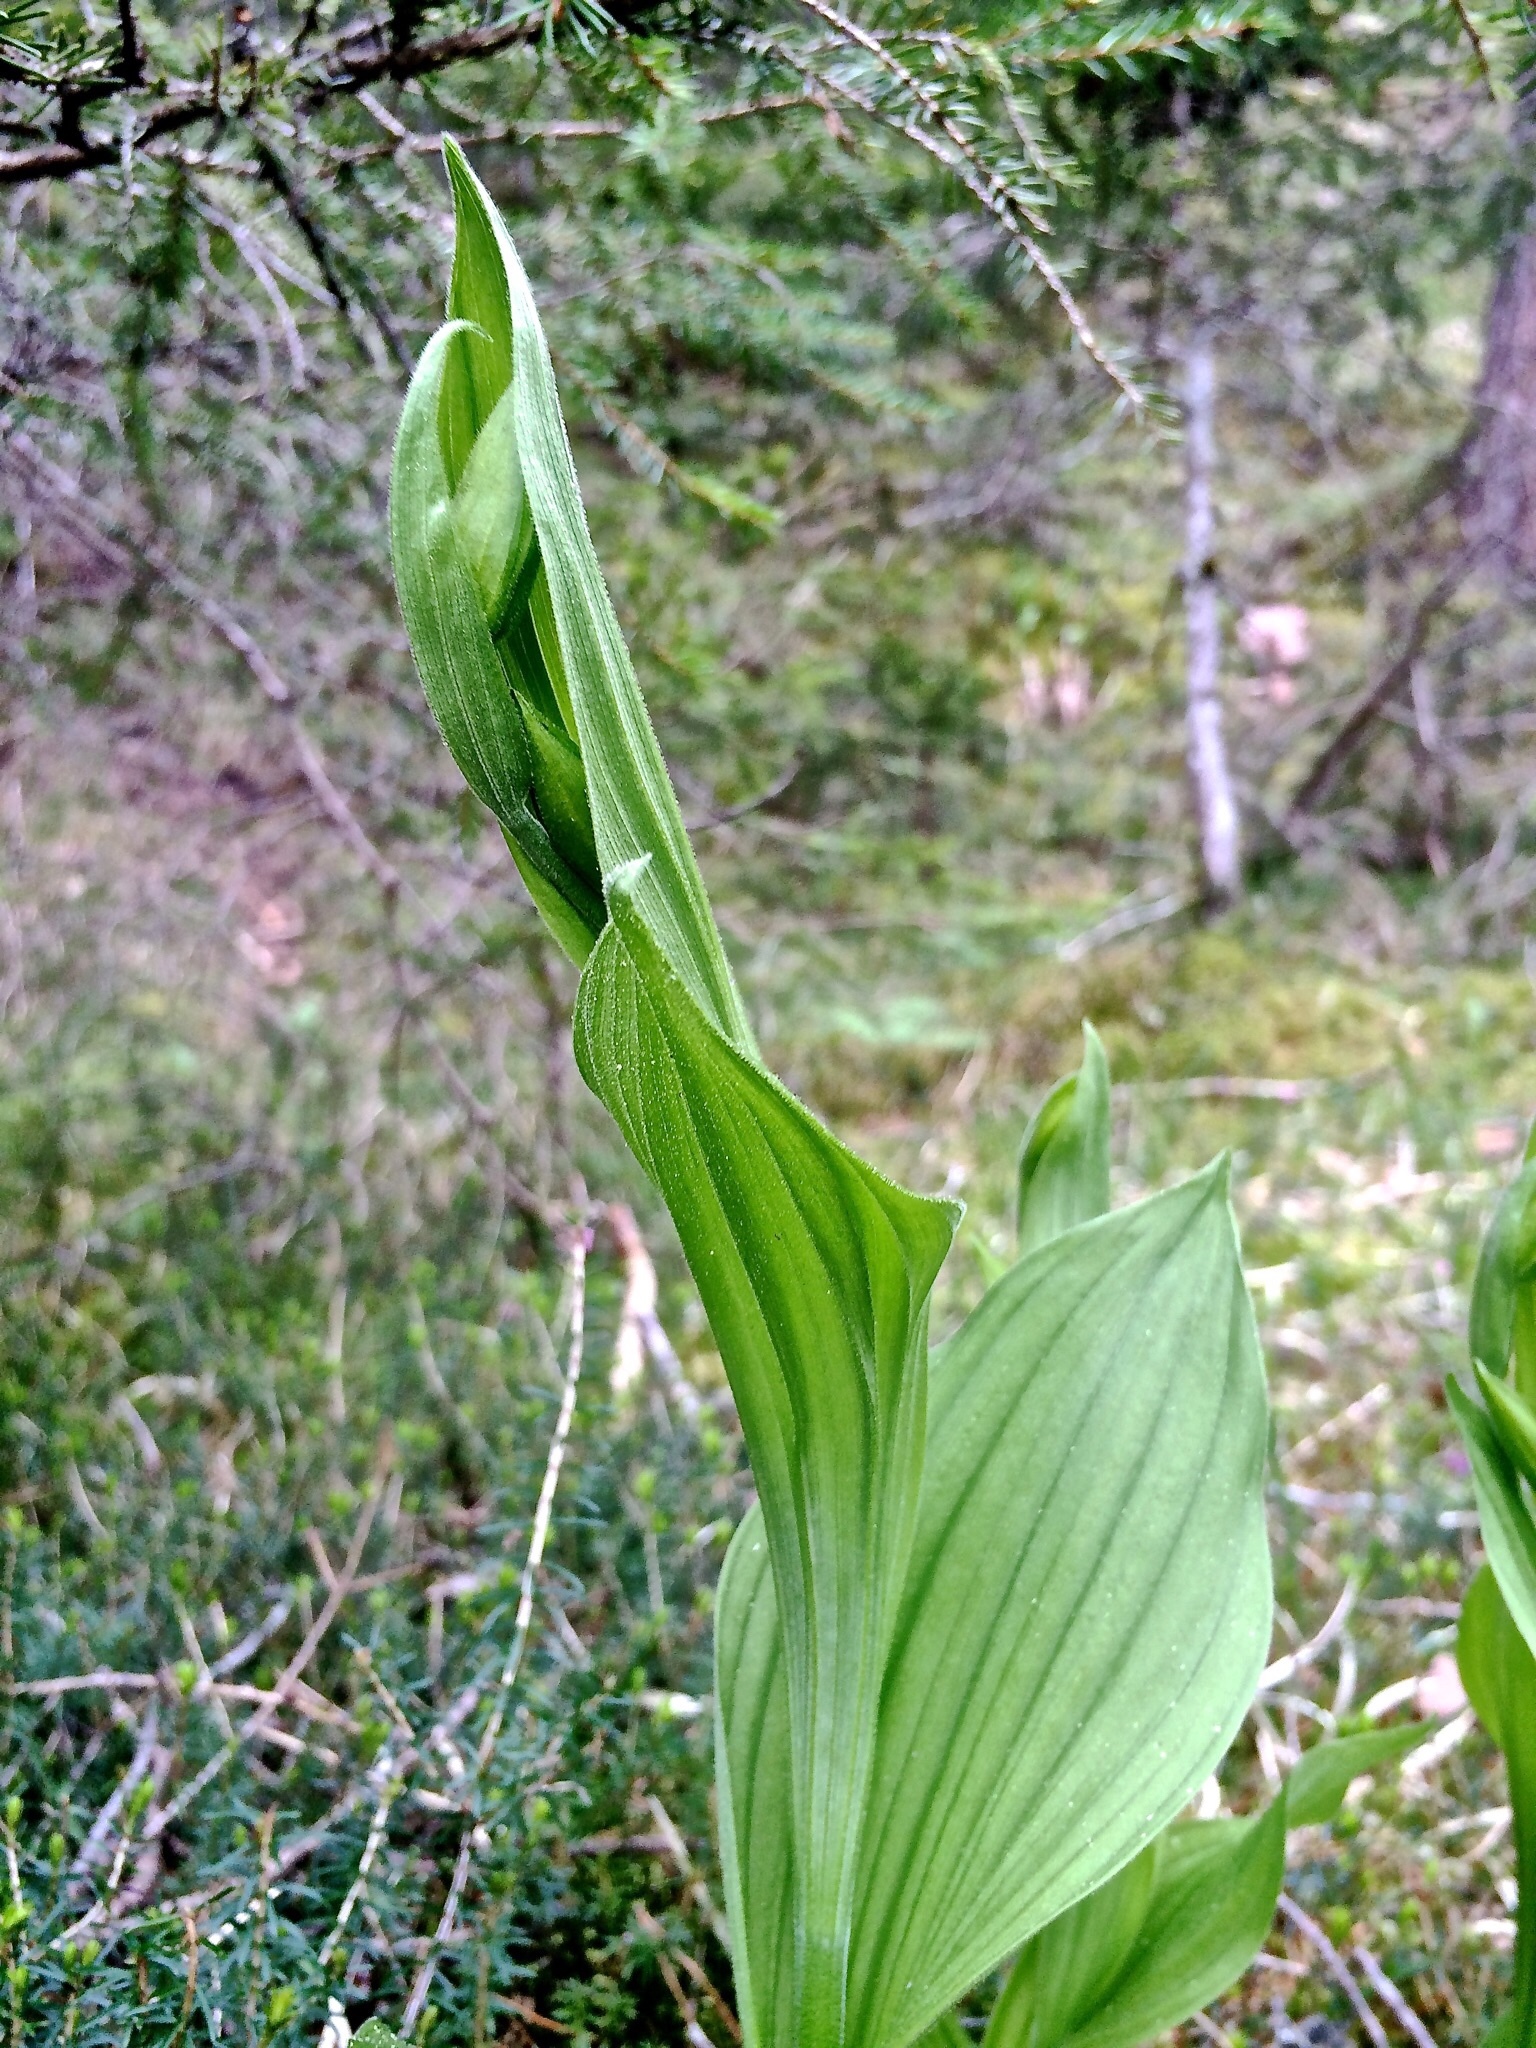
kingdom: Plantae
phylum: Tracheophyta
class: Liliopsida
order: Asparagales
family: Orchidaceae
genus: Cypripedium
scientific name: Cypripedium calceolus
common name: Lady's-slipper
